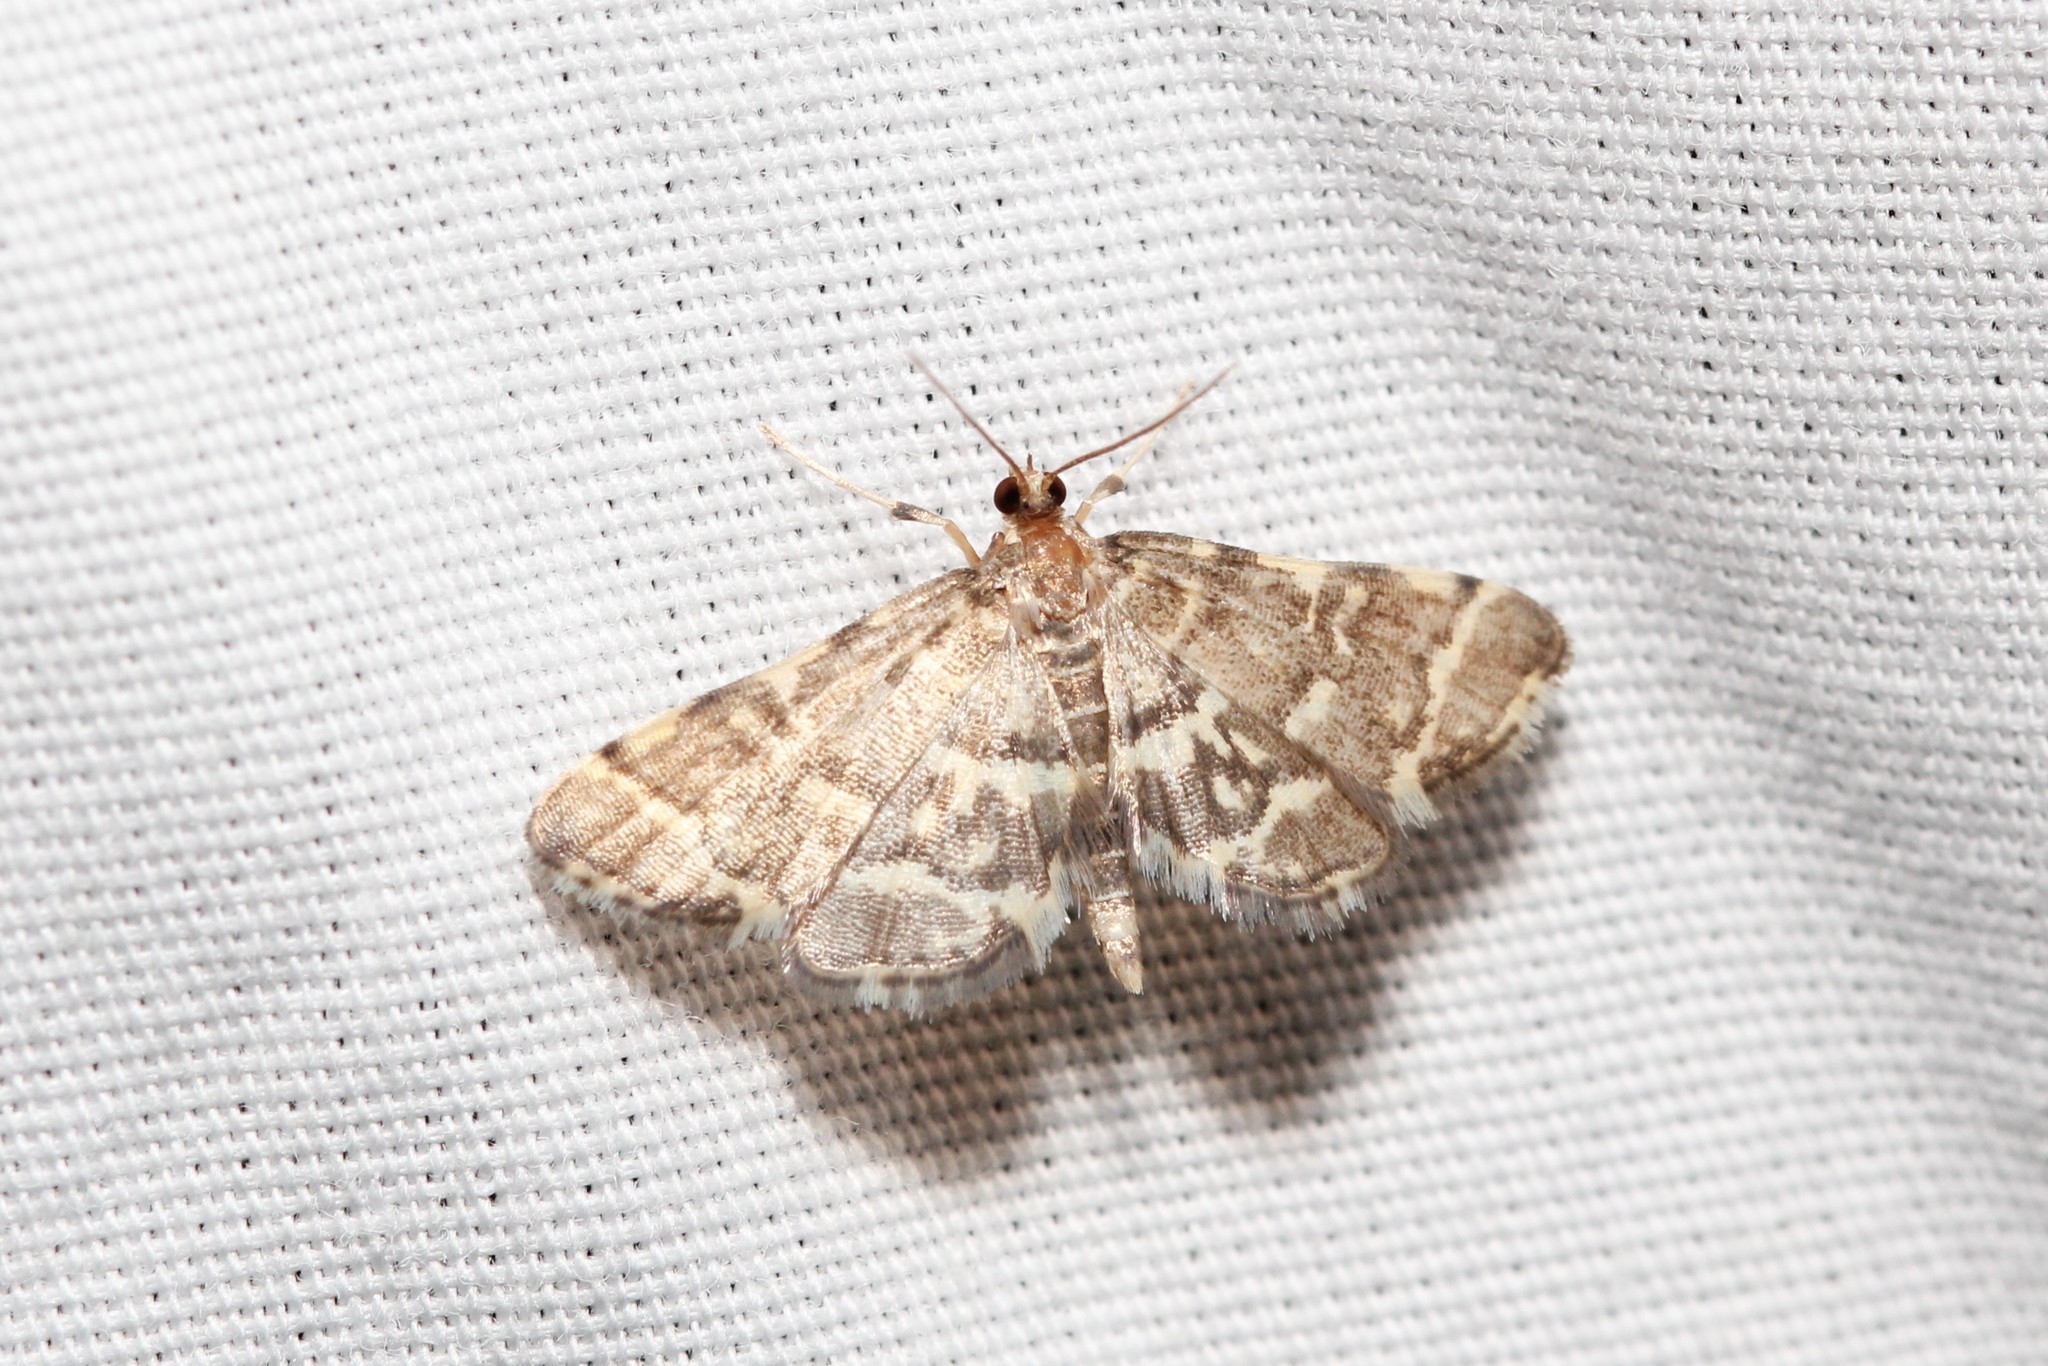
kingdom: Animalia
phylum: Arthropoda
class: Insecta
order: Lepidoptera
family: Crambidae
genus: Anageshna
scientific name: Anageshna primordialis
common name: Yellow-spotted webworm moth
